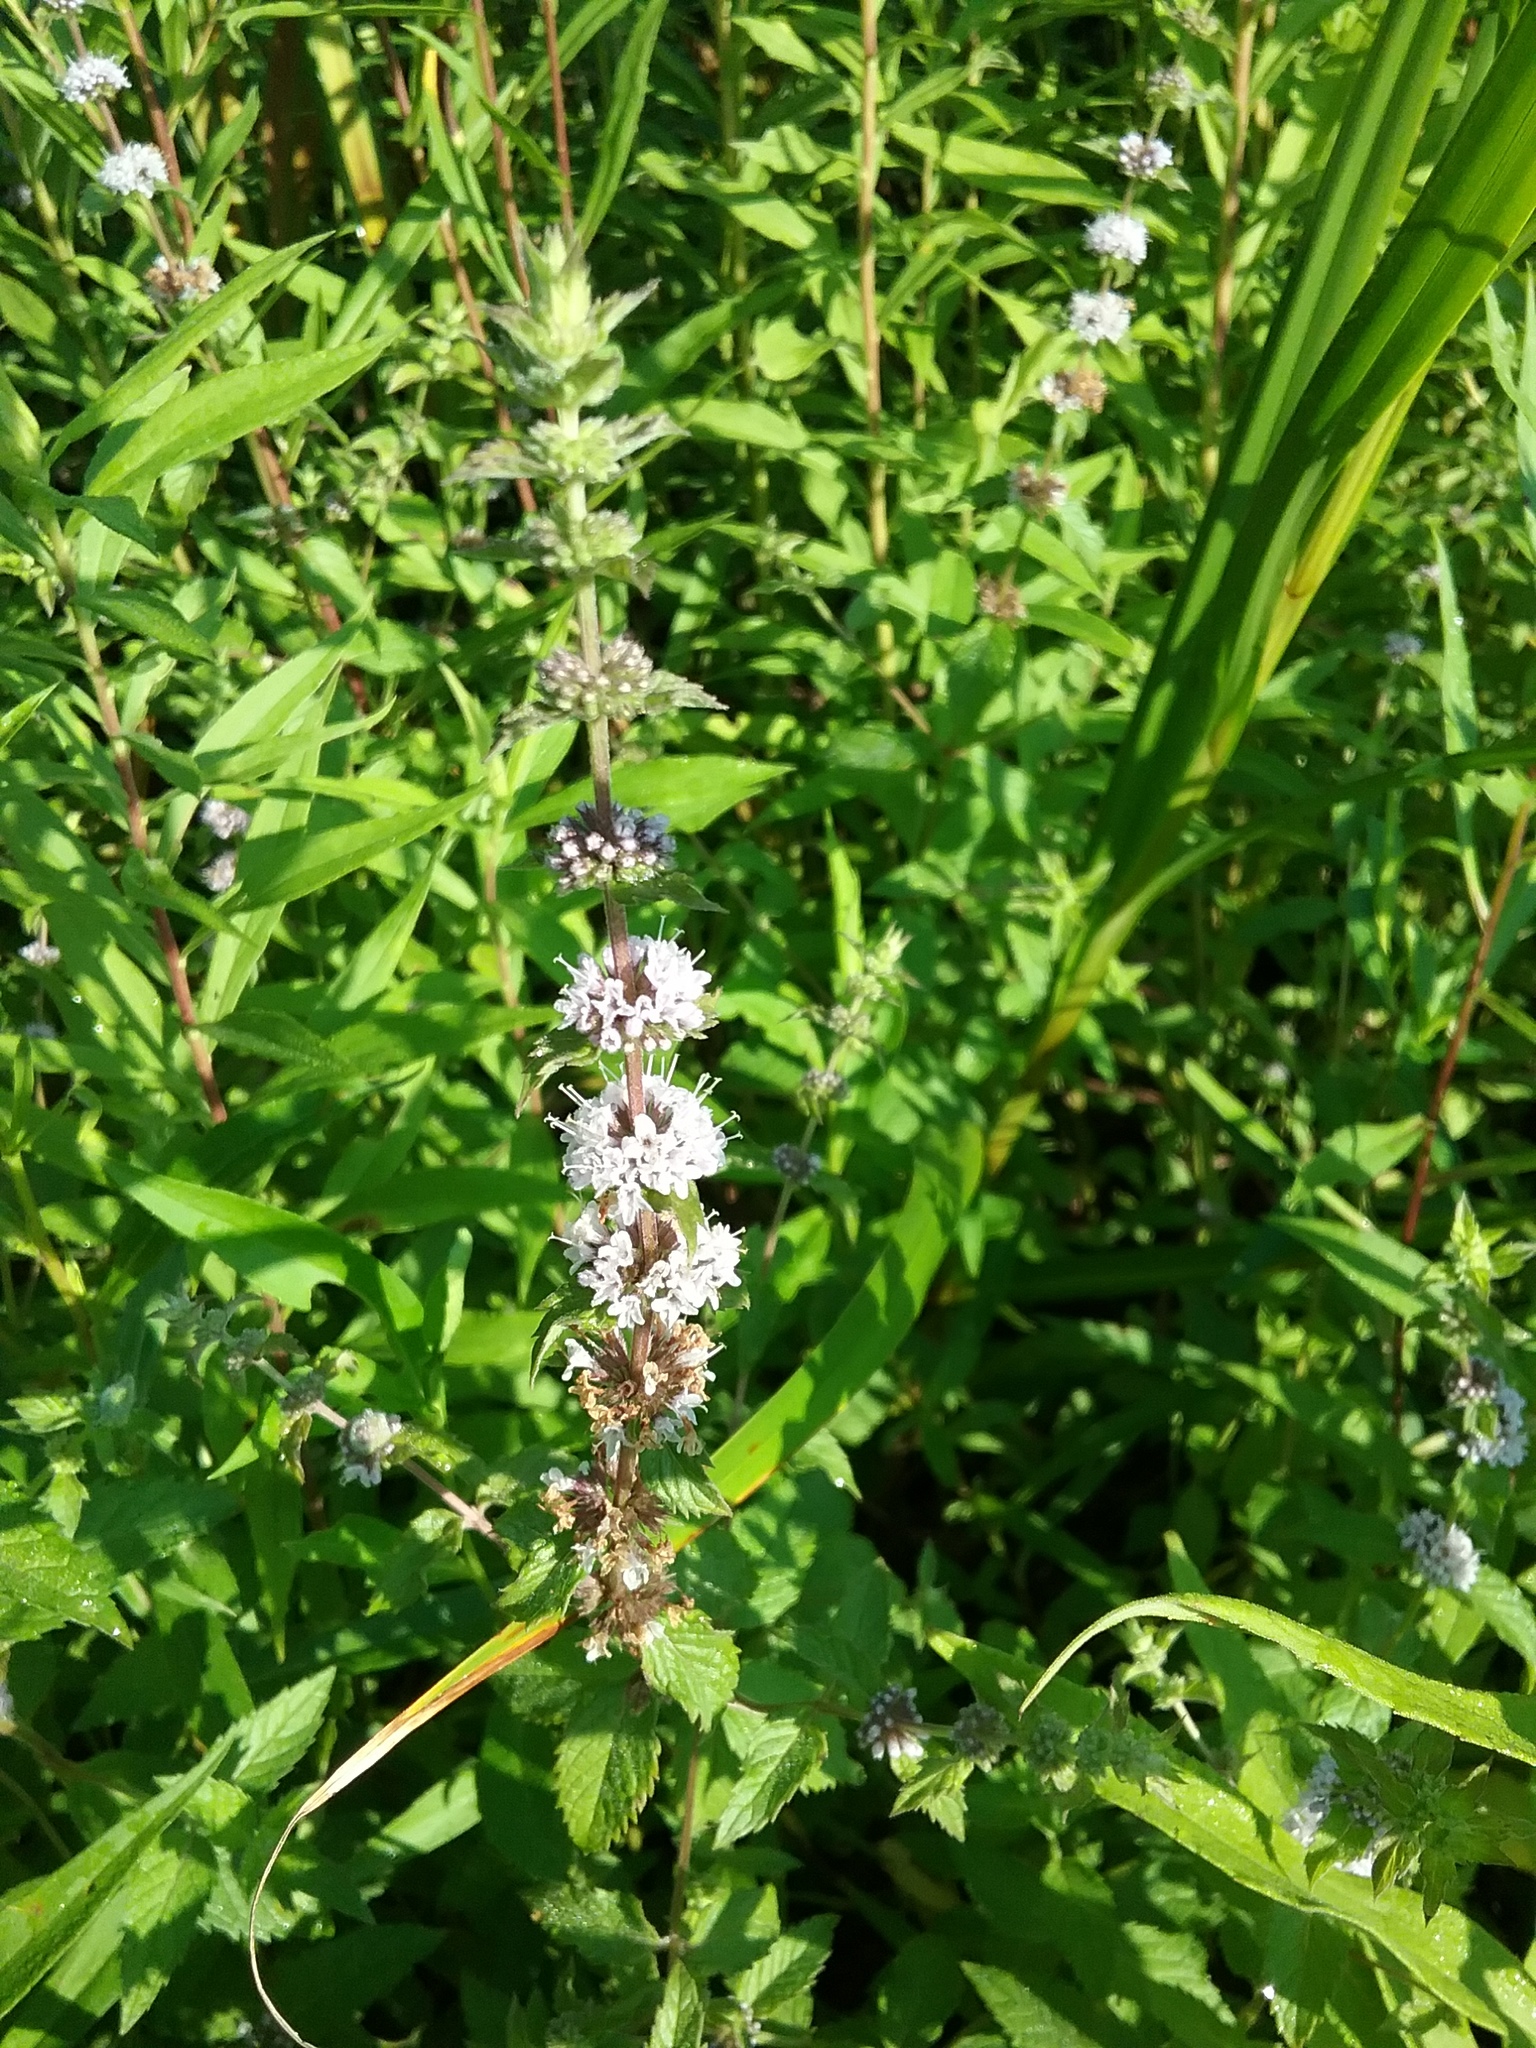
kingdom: Plantae
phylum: Tracheophyta
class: Magnoliopsida
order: Lamiales
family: Lamiaceae
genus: Mentha
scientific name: Mentha canadensis
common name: American corn mint
